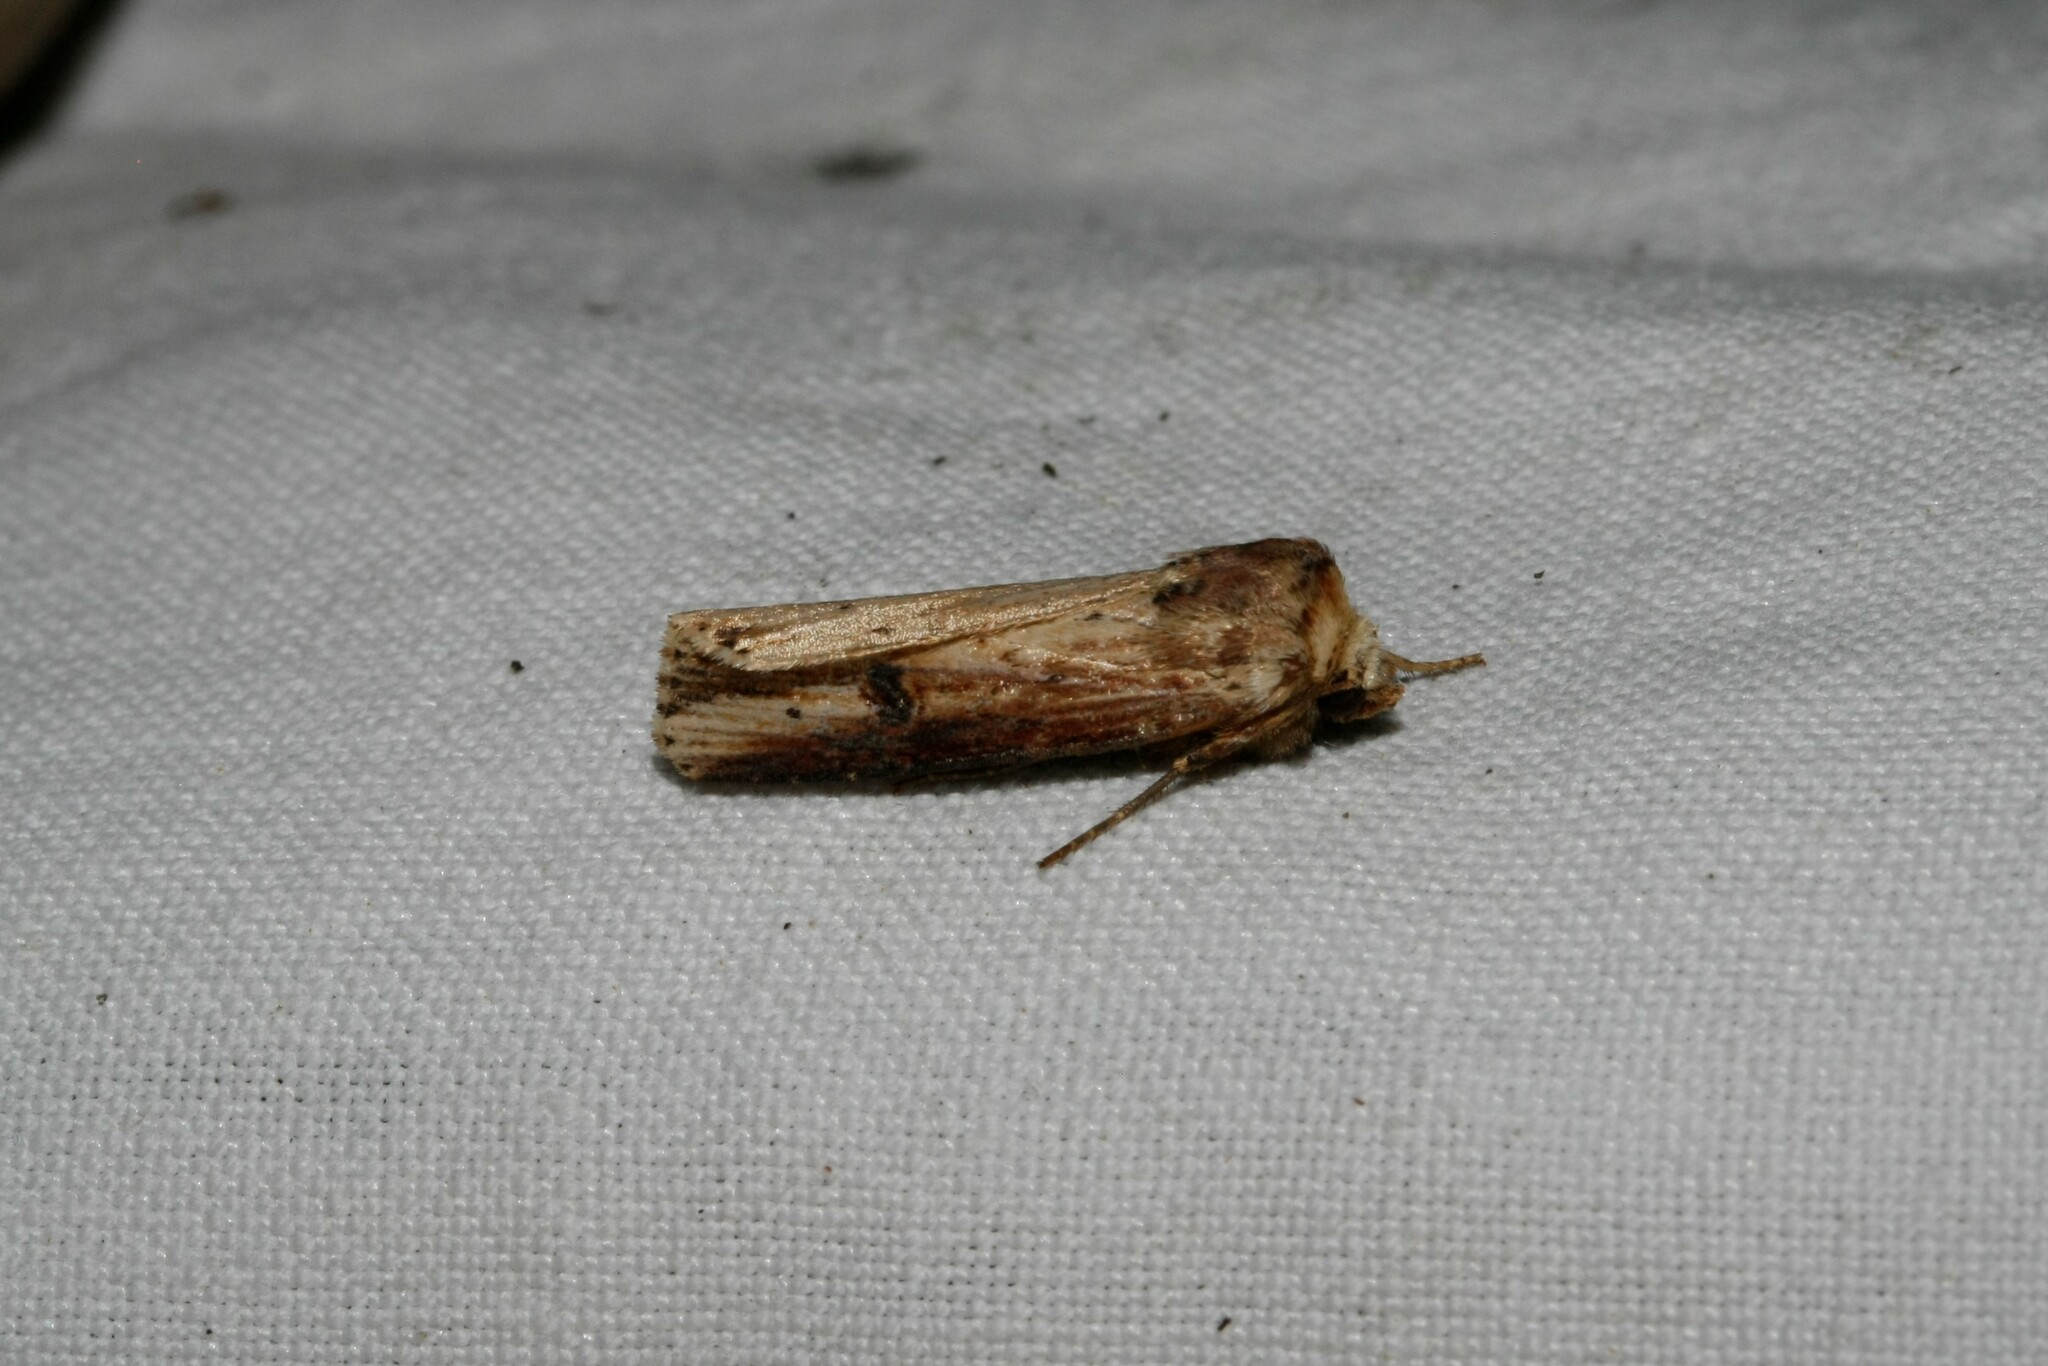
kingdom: Animalia
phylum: Arthropoda
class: Insecta
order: Lepidoptera
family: Noctuidae
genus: Axylia
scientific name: Axylia putris
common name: Flame
